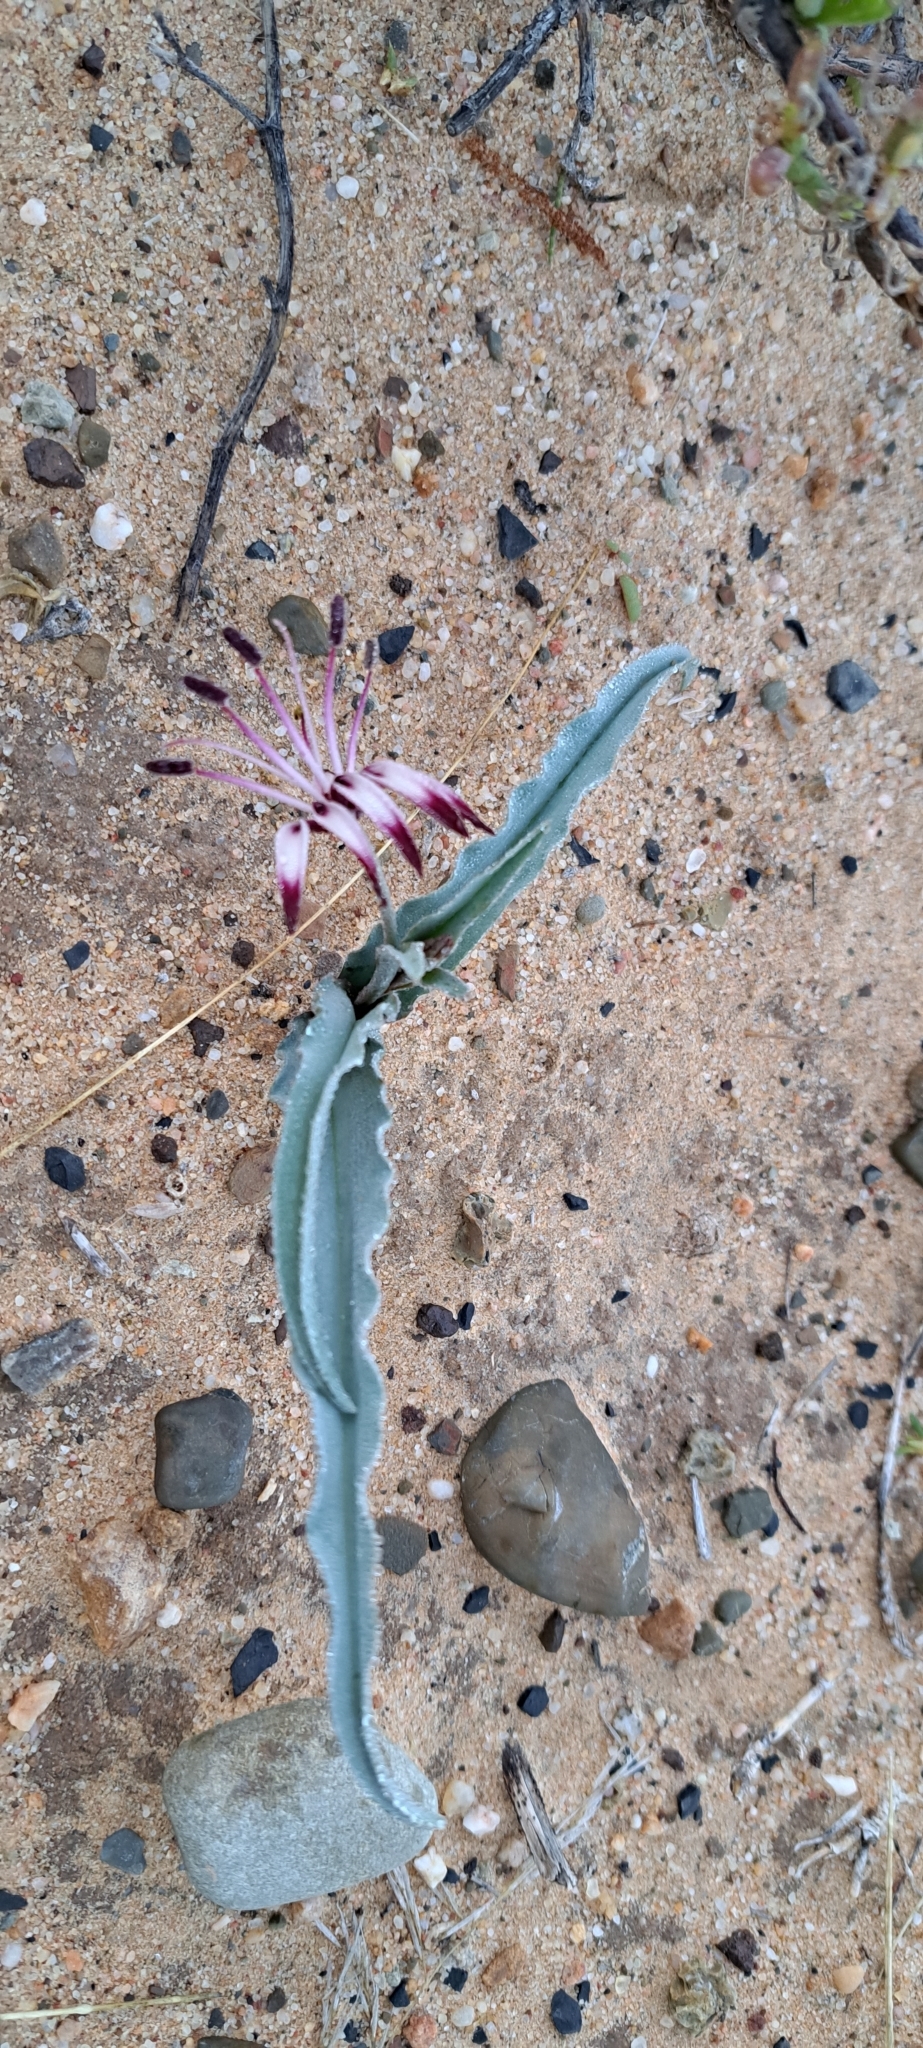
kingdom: Plantae
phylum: Tracheophyta
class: Liliopsida
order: Liliales
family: Colchicaceae
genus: Ornithoglossum
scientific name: Ornithoglossum undulatum
